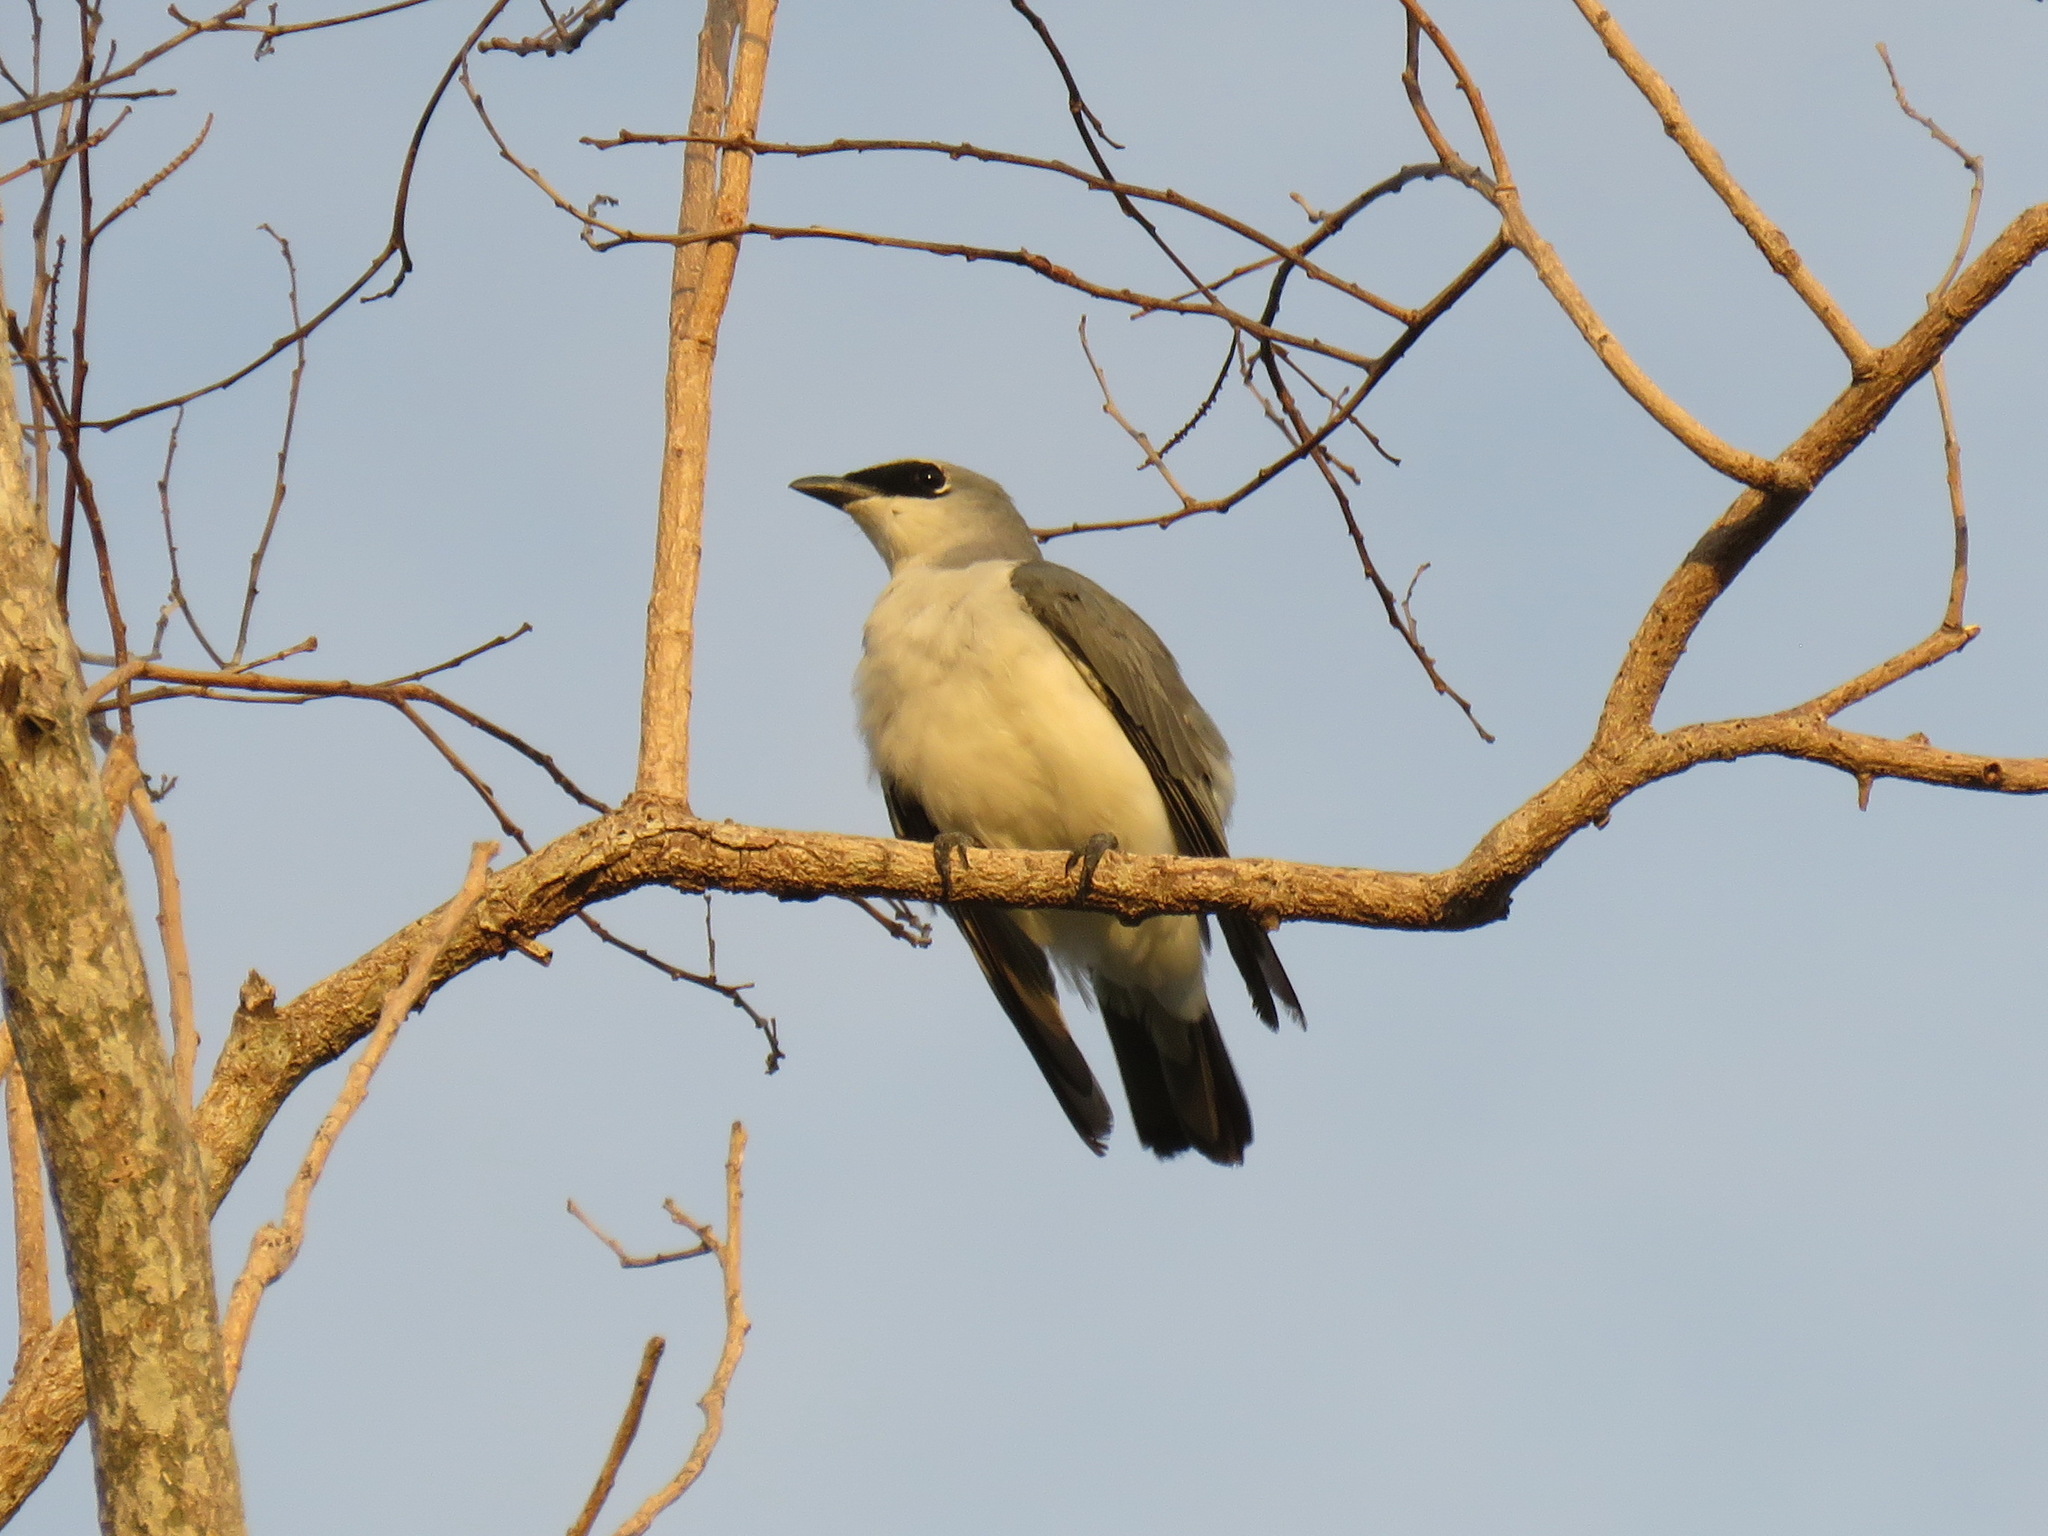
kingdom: Animalia
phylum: Chordata
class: Aves
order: Passeriformes
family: Campephagidae
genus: Coracina
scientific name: Coracina papuensis
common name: White-bellied cuckooshrike
